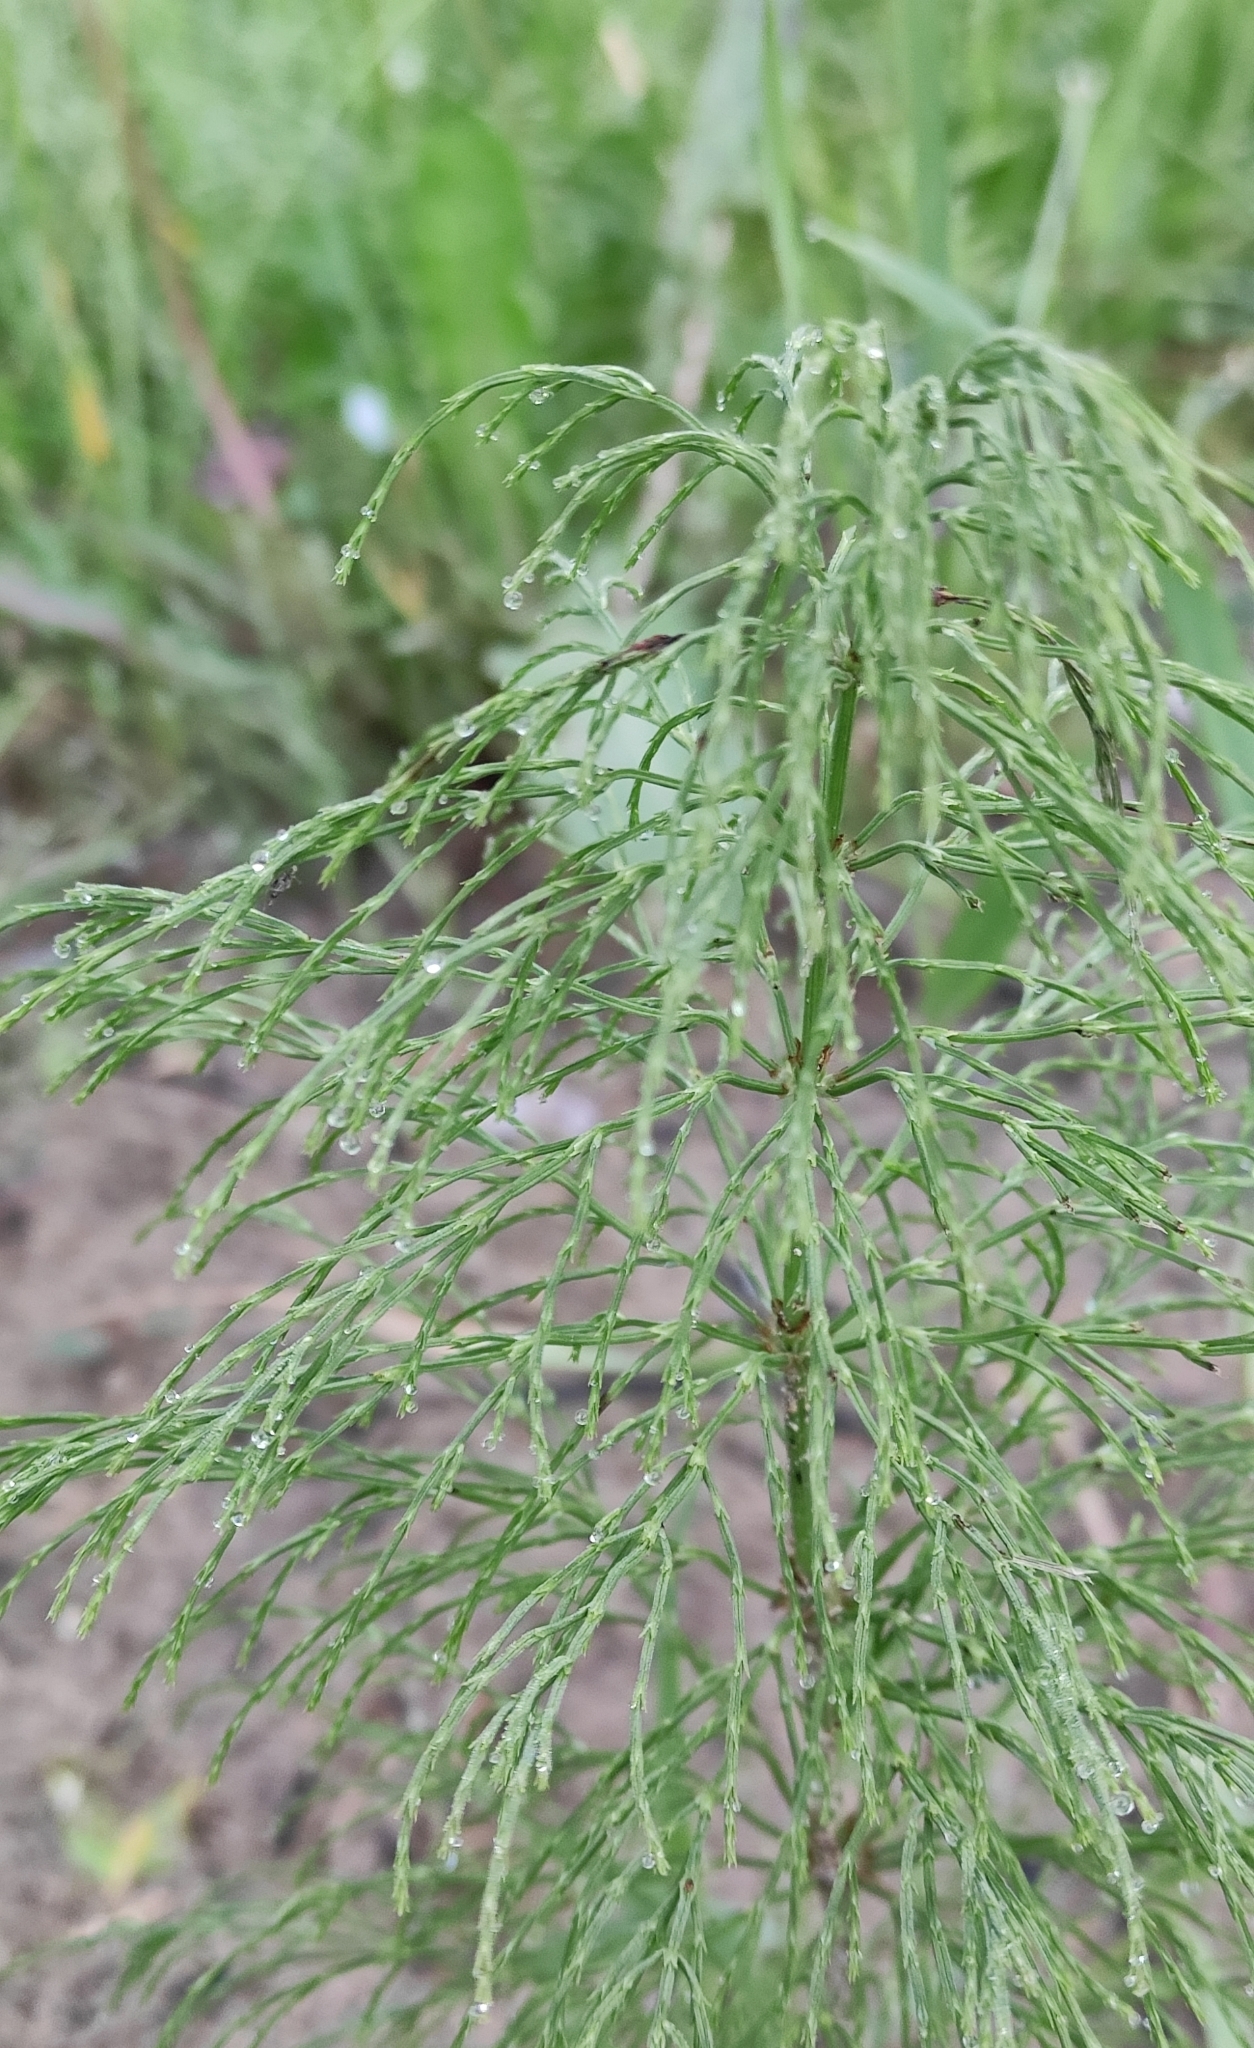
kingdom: Plantae
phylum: Tracheophyta
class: Polypodiopsida
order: Equisetales
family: Equisetaceae
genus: Equisetum
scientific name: Equisetum sylvaticum
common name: Wood horsetail
